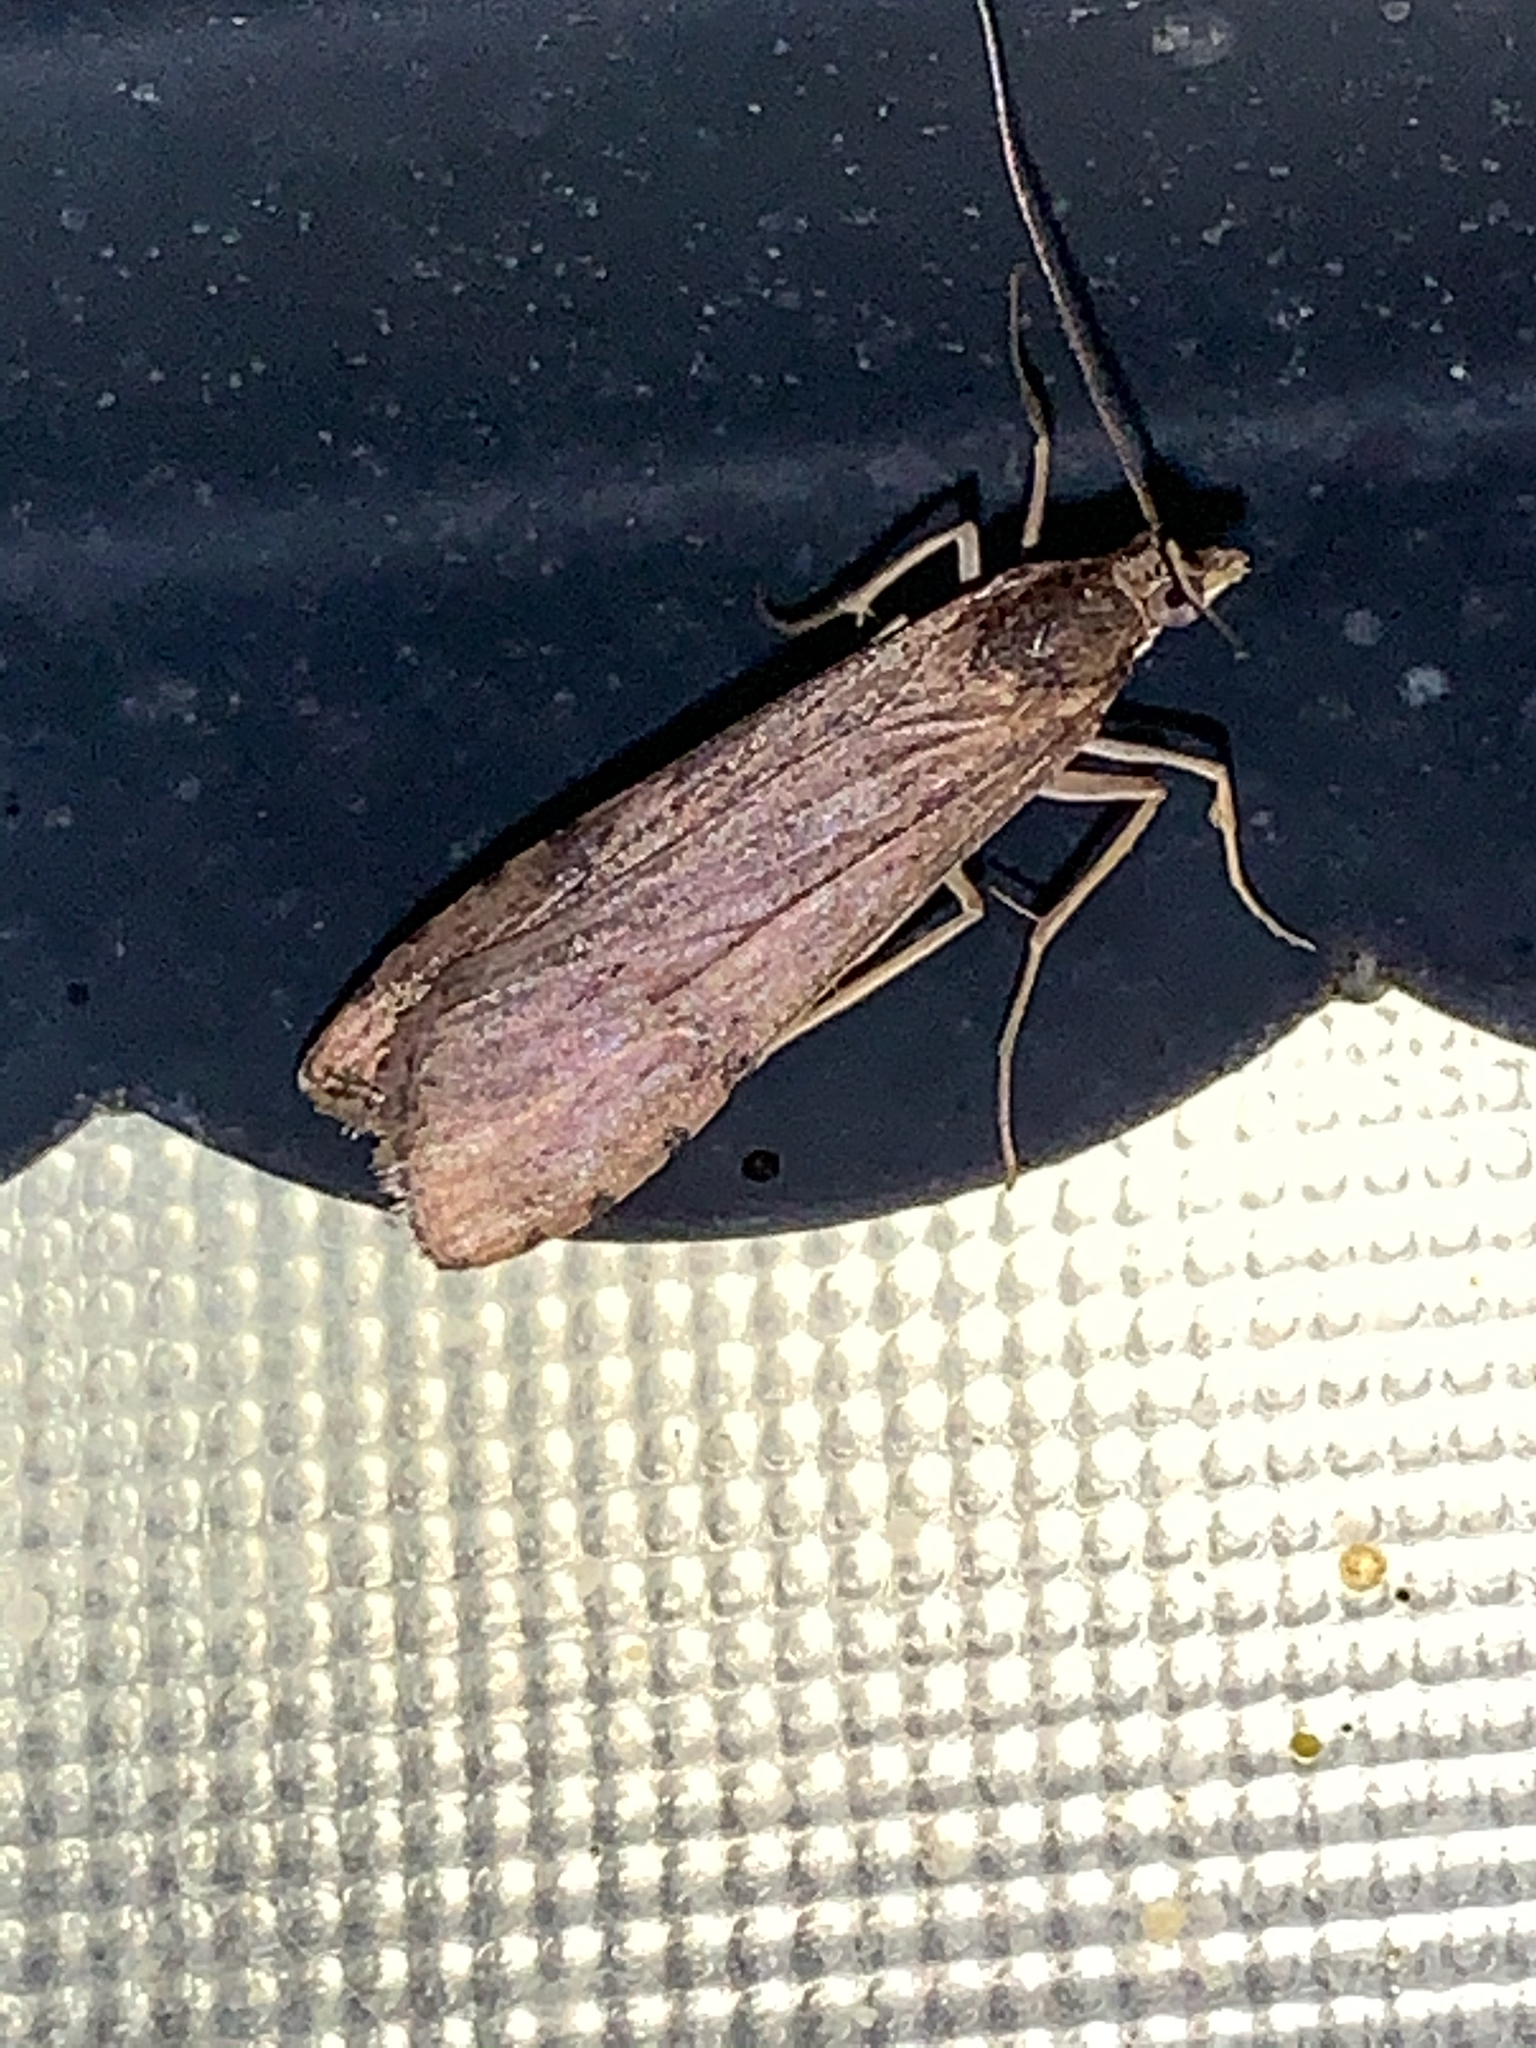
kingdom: Animalia
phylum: Arthropoda
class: Insecta
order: Lepidoptera
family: Crambidae
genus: Nomophila
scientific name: Nomophila nearctica
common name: American rush veneer
